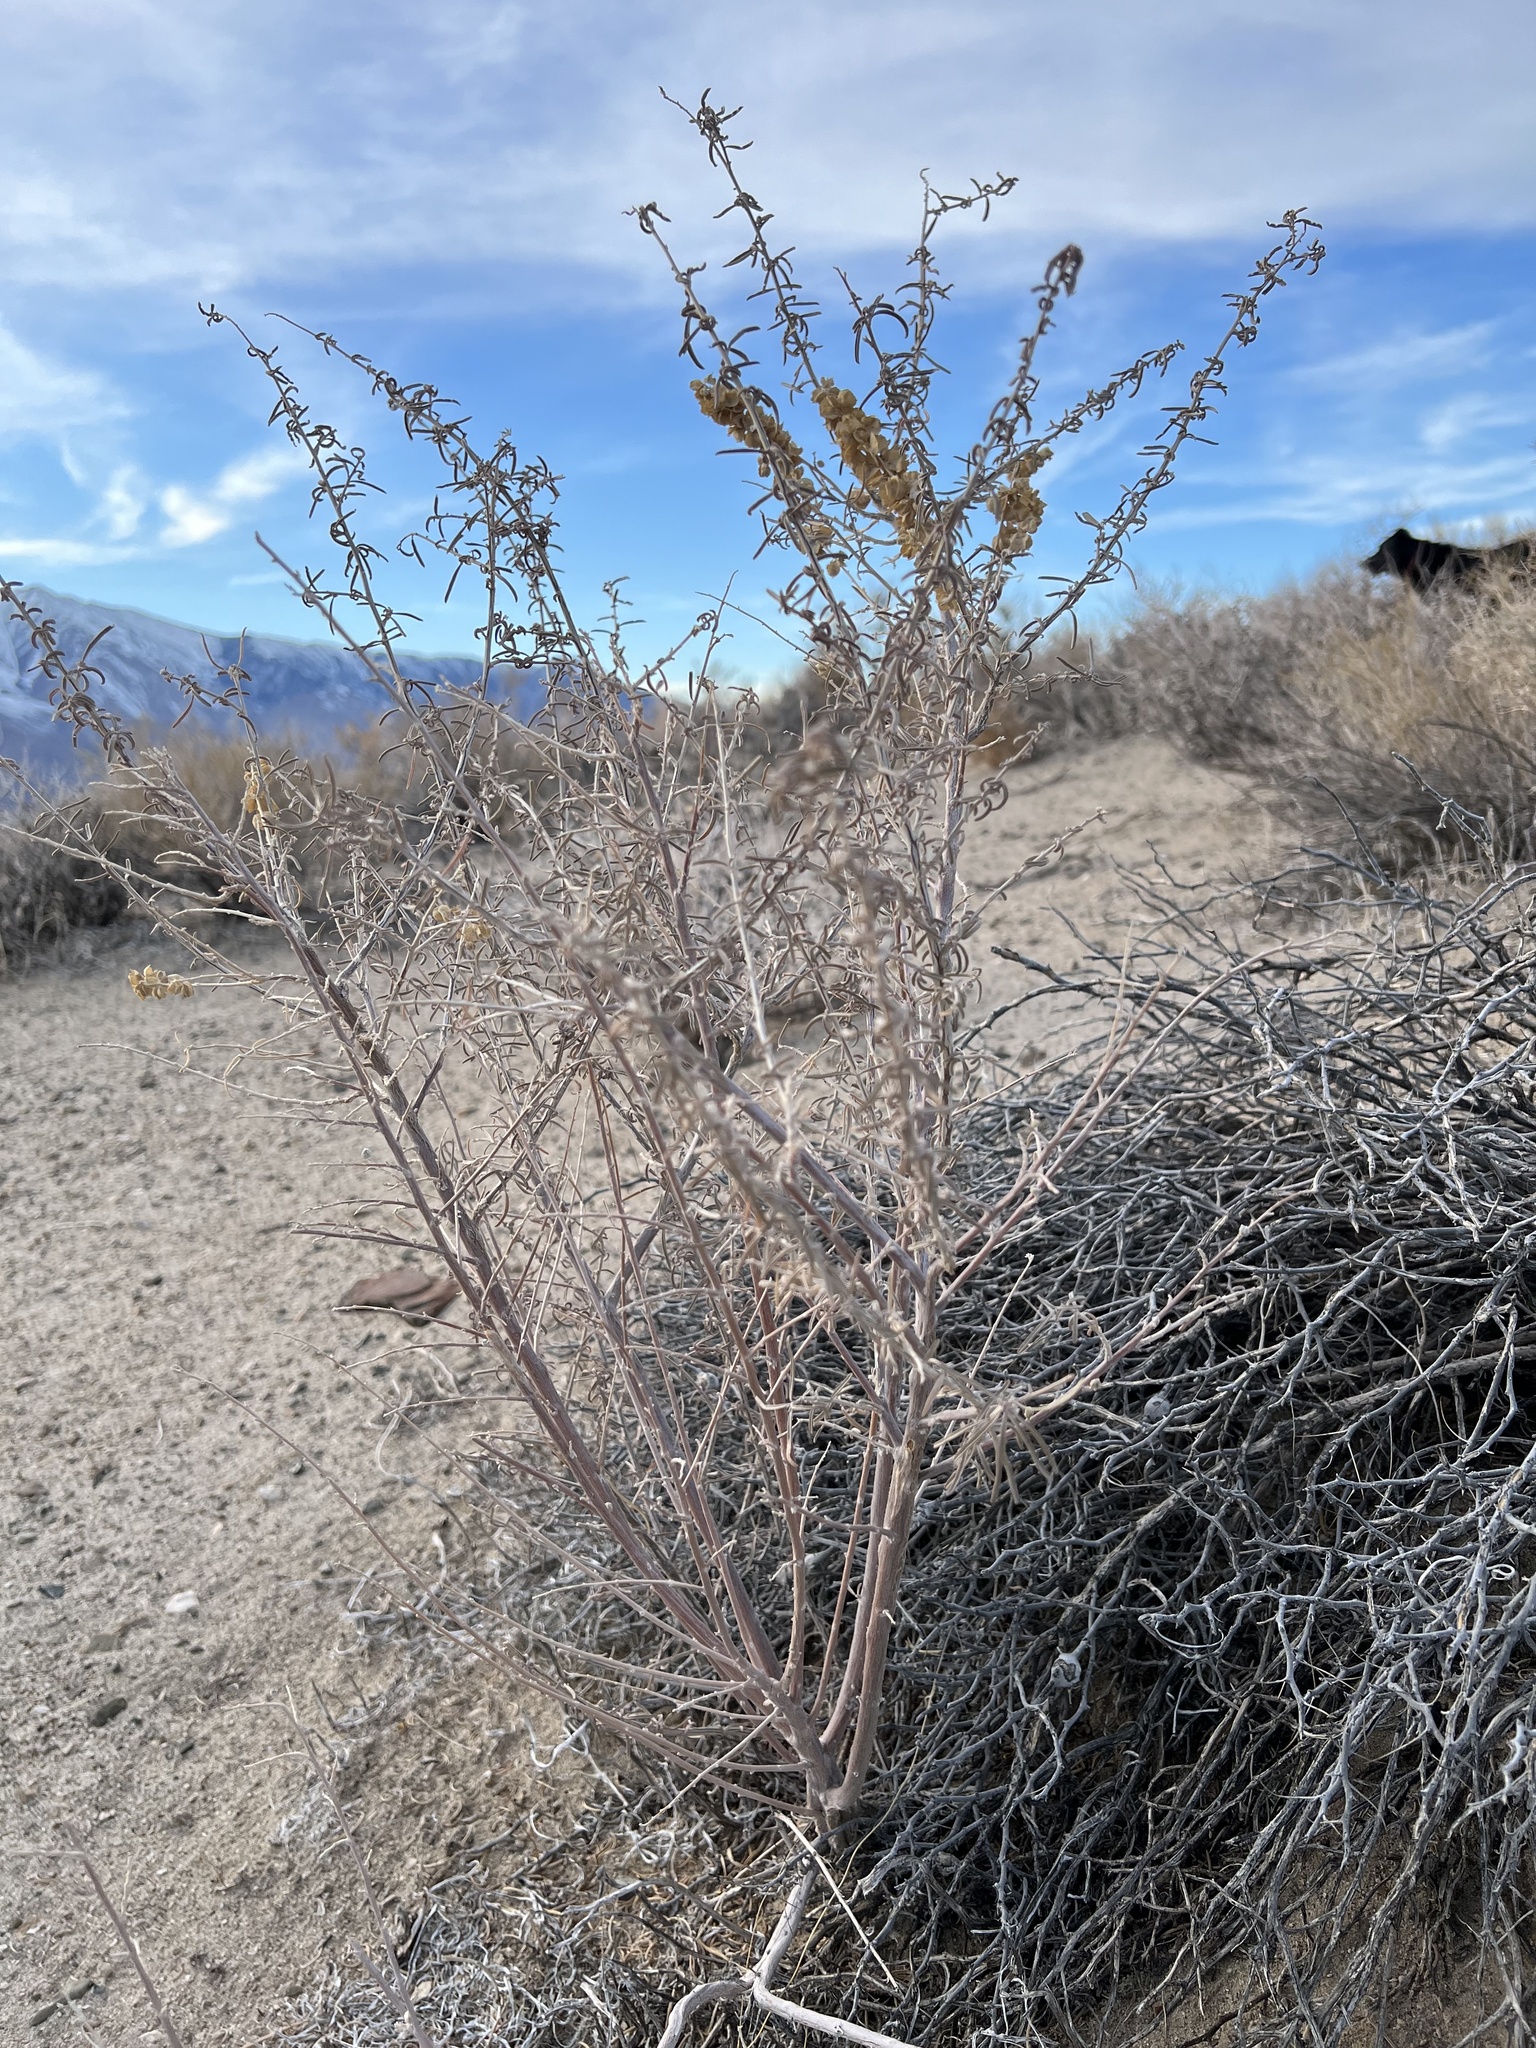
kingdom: Plantae
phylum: Tracheophyta
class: Magnoliopsida
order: Caryophyllales
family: Amaranthaceae
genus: Atriplex
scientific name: Atriplex canescens
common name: Four-wing saltbush
